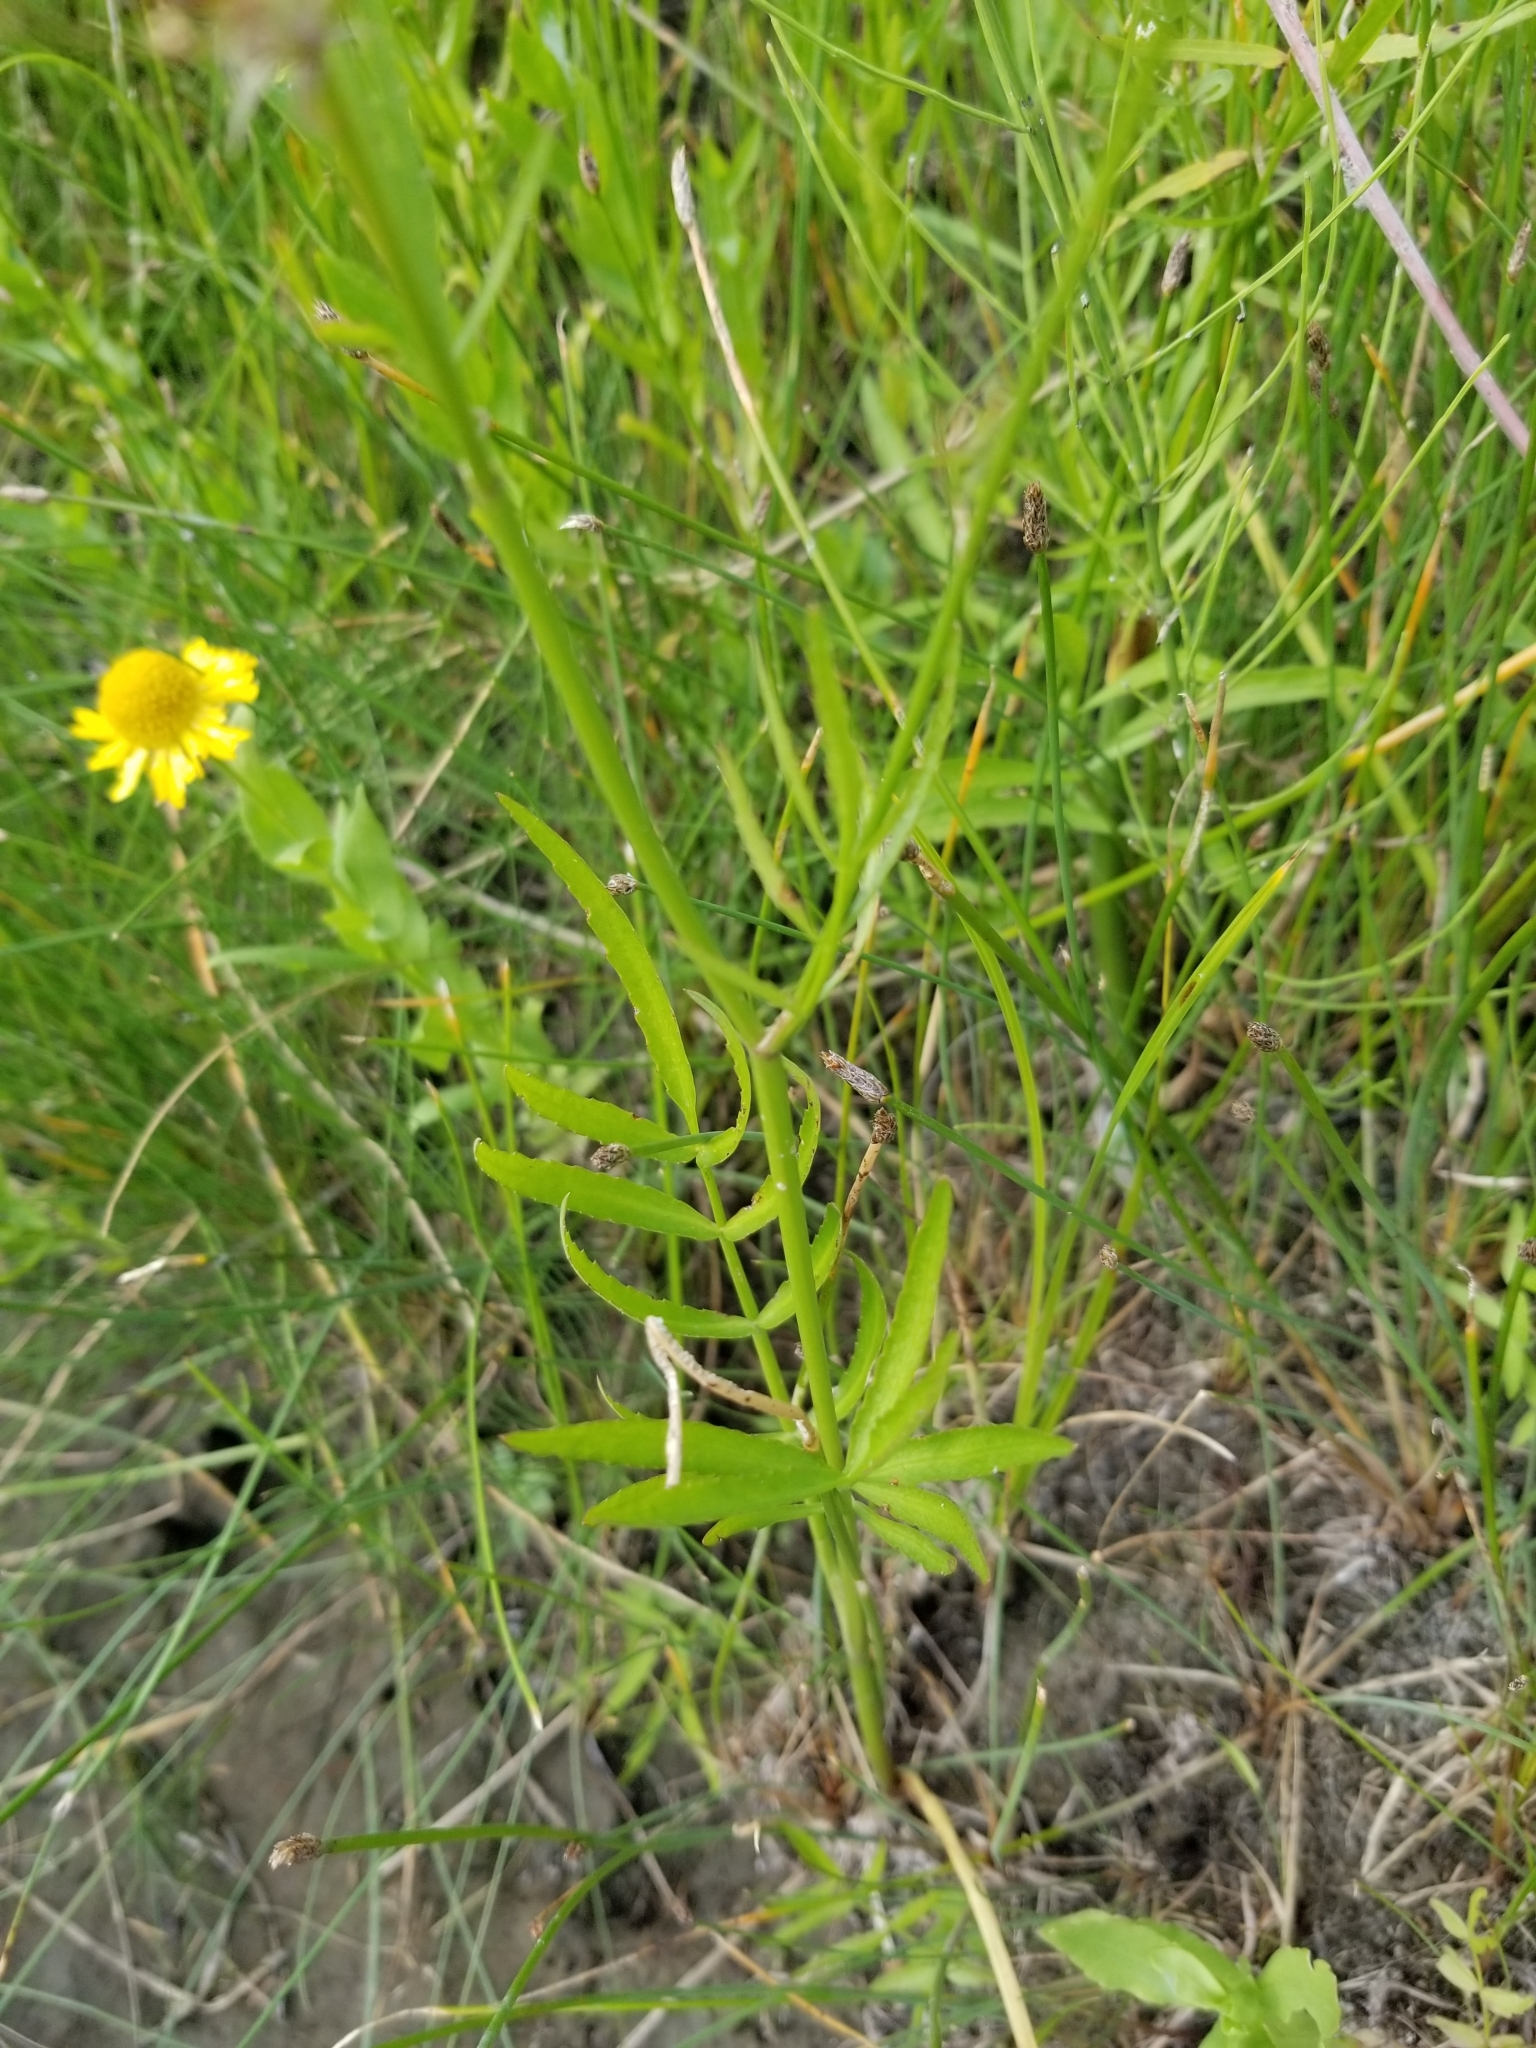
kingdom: Plantae
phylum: Tracheophyta
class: Magnoliopsida
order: Apiales
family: Apiaceae
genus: Sium
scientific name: Sium suave
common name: Hemlock water-parsnip
